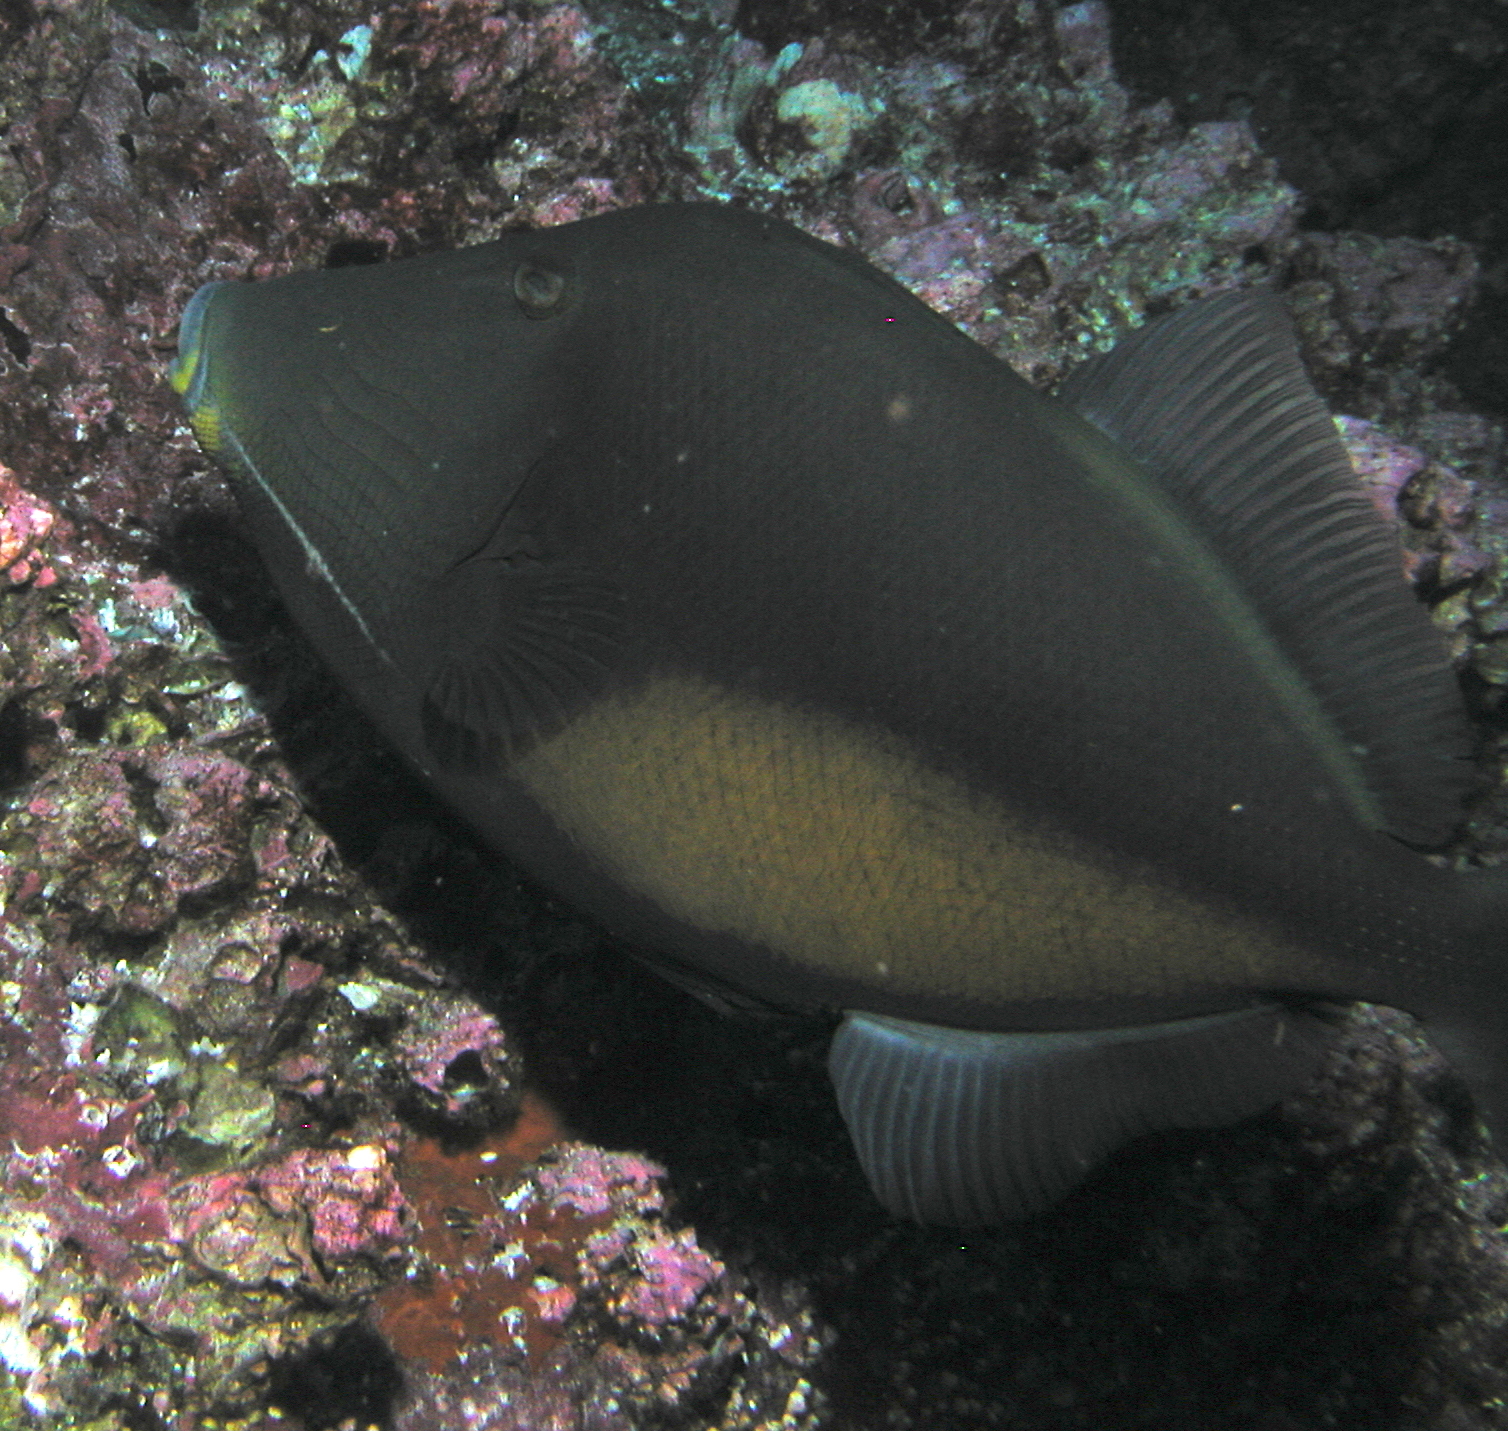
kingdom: Animalia
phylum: Chordata
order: Tetraodontiformes
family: Balistidae
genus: Sufflamen
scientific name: Sufflamen verres
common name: Orangeside triggerfish
